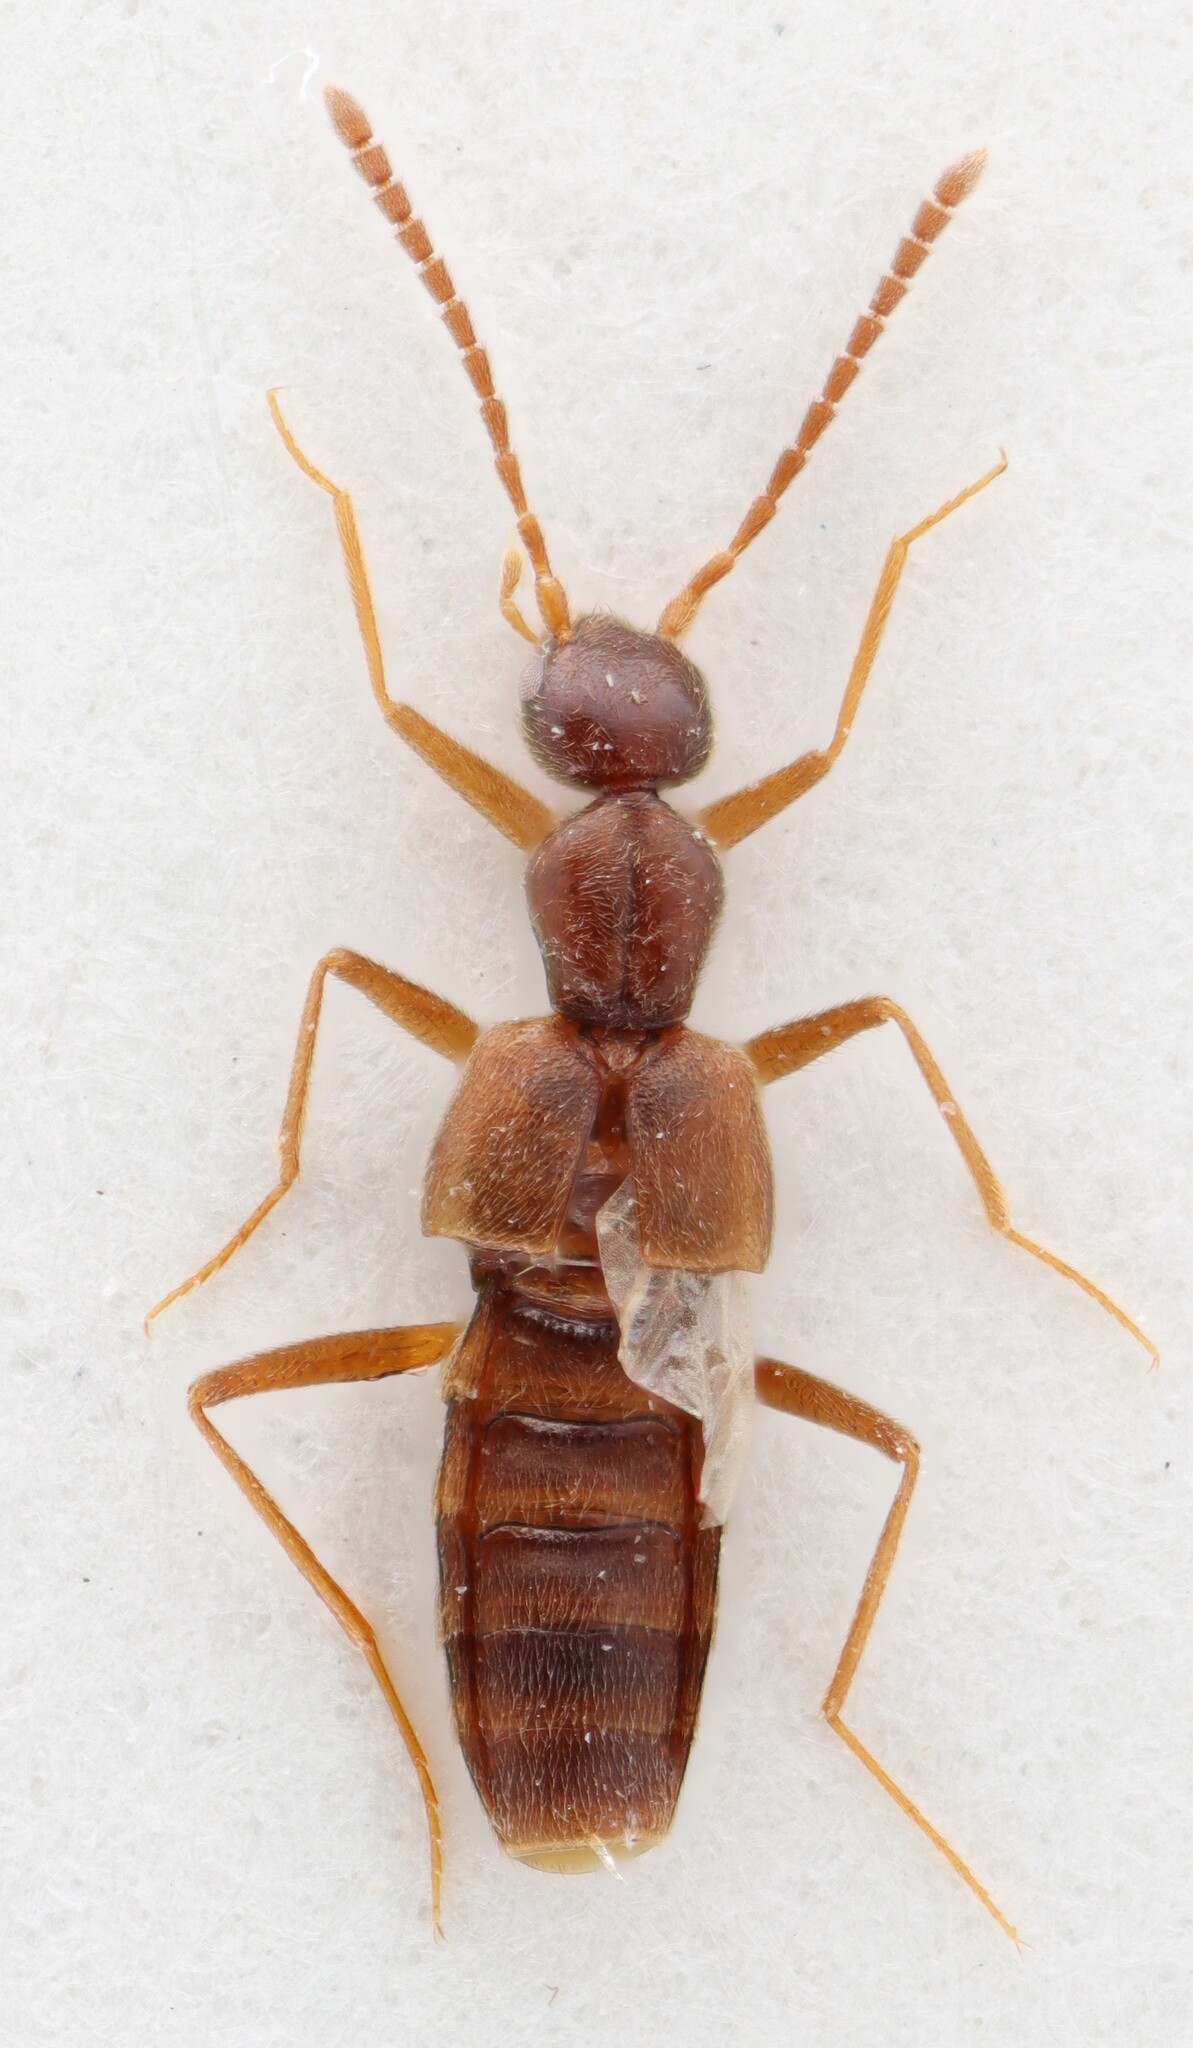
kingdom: Animalia
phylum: Arthropoda
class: Insecta
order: Coleoptera
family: Staphylinidae
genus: Myrmecocephalus
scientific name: Myrmecocephalus gatineauensis
